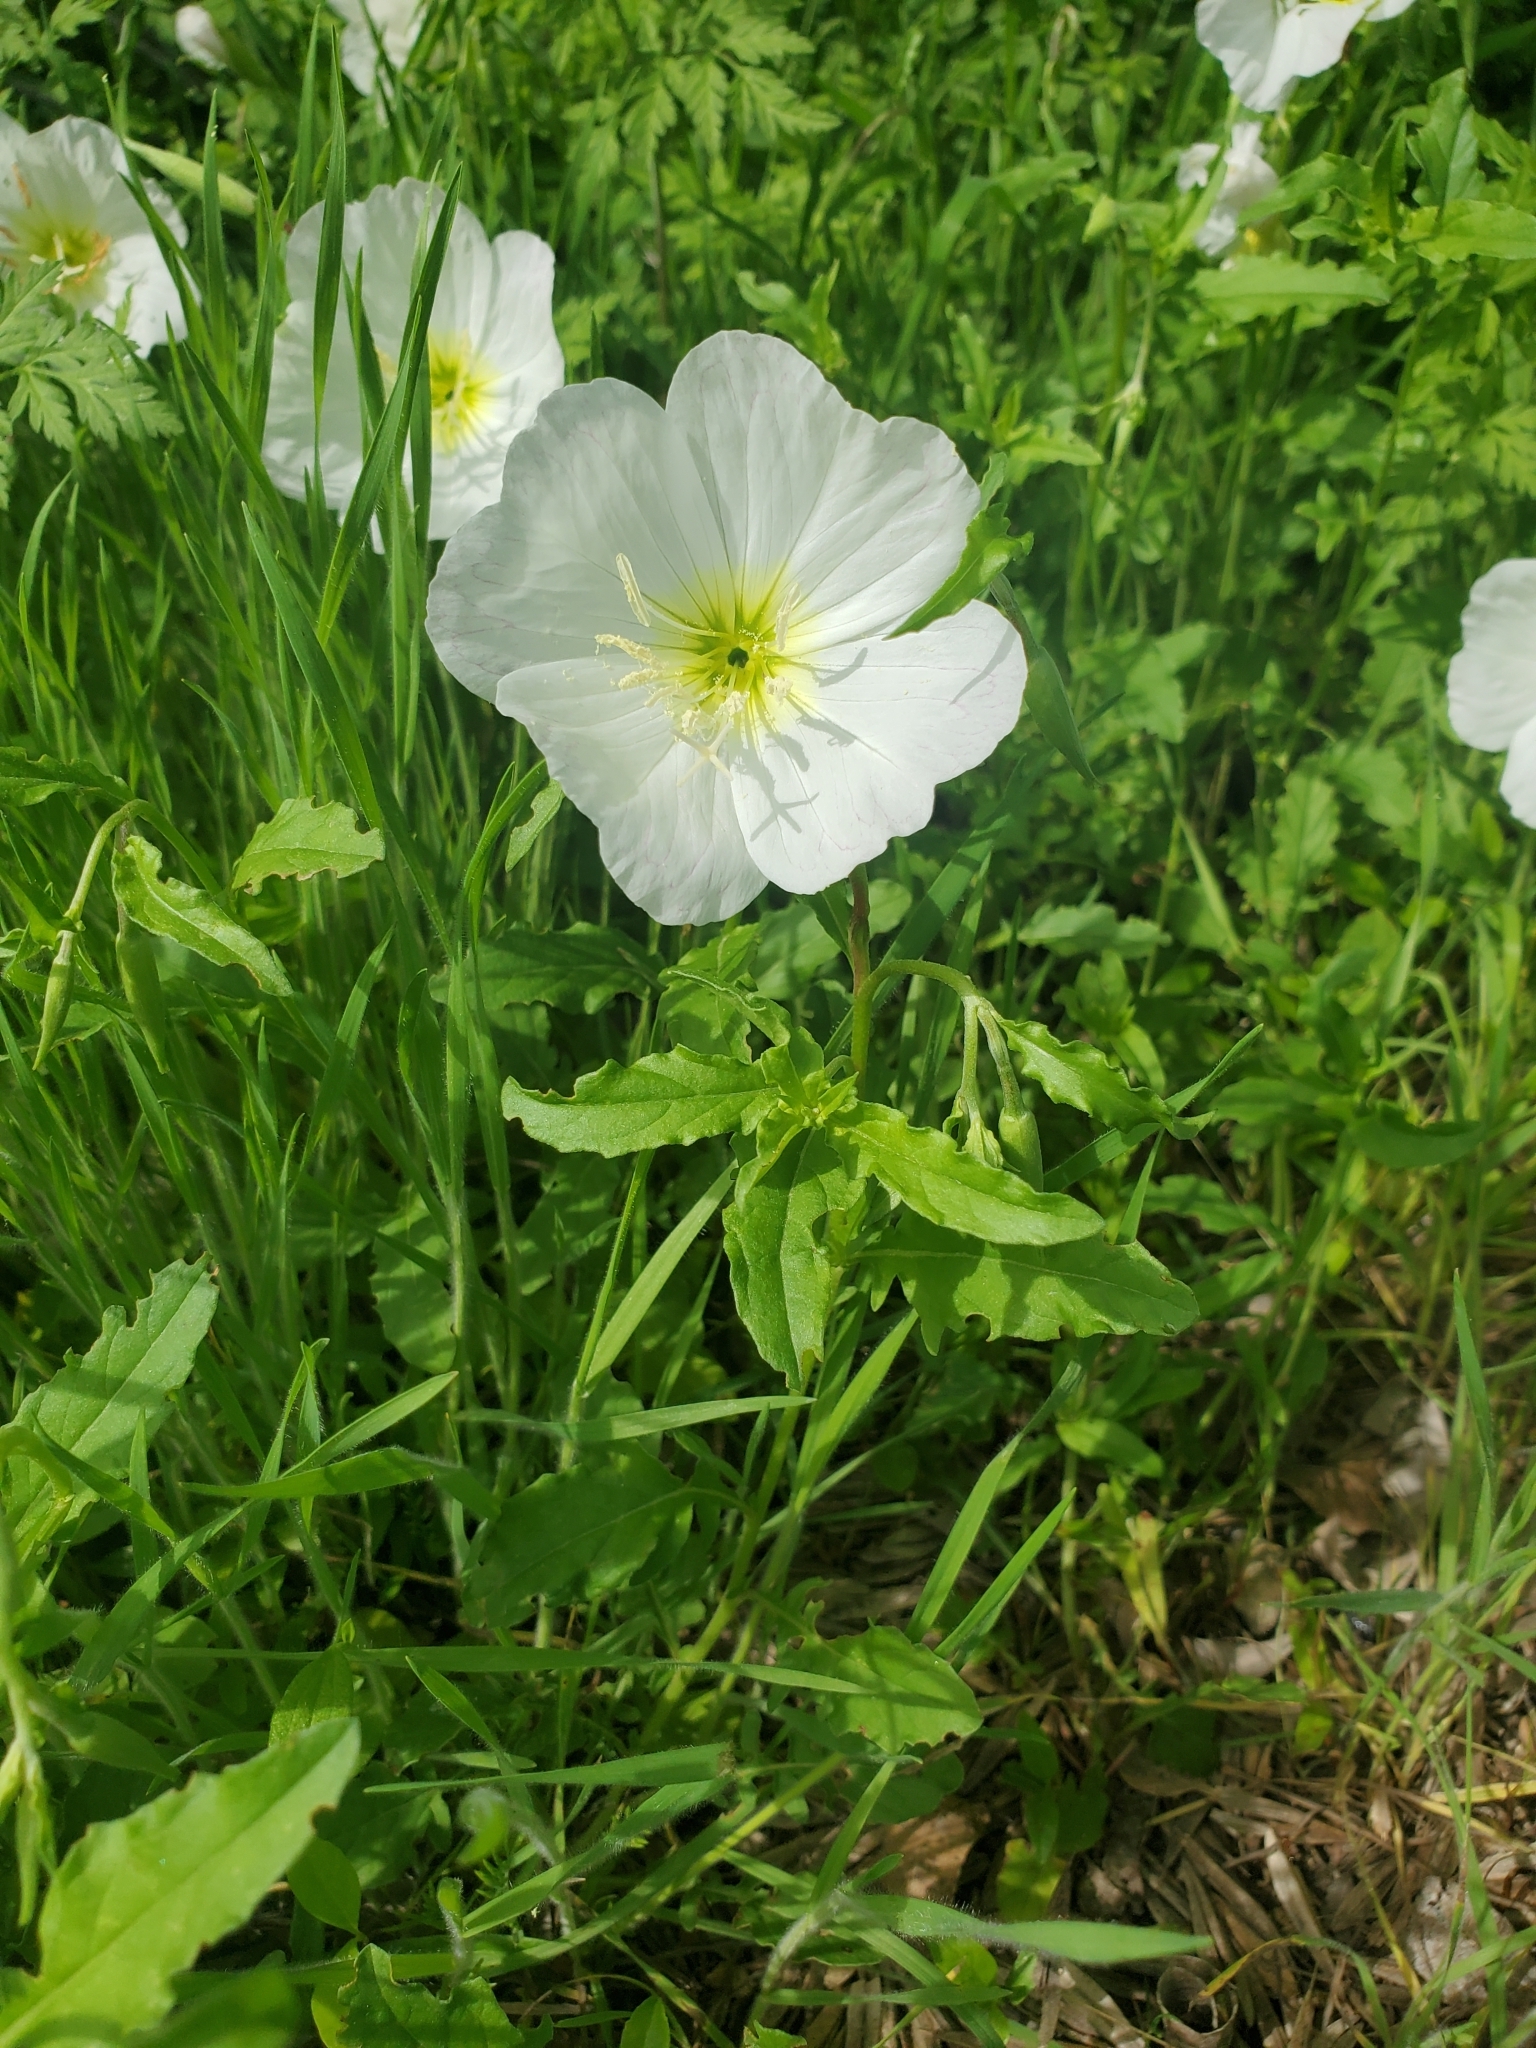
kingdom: Plantae
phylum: Tracheophyta
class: Magnoliopsida
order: Myrtales
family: Onagraceae
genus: Oenothera
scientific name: Oenothera speciosa
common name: White evening-primrose
